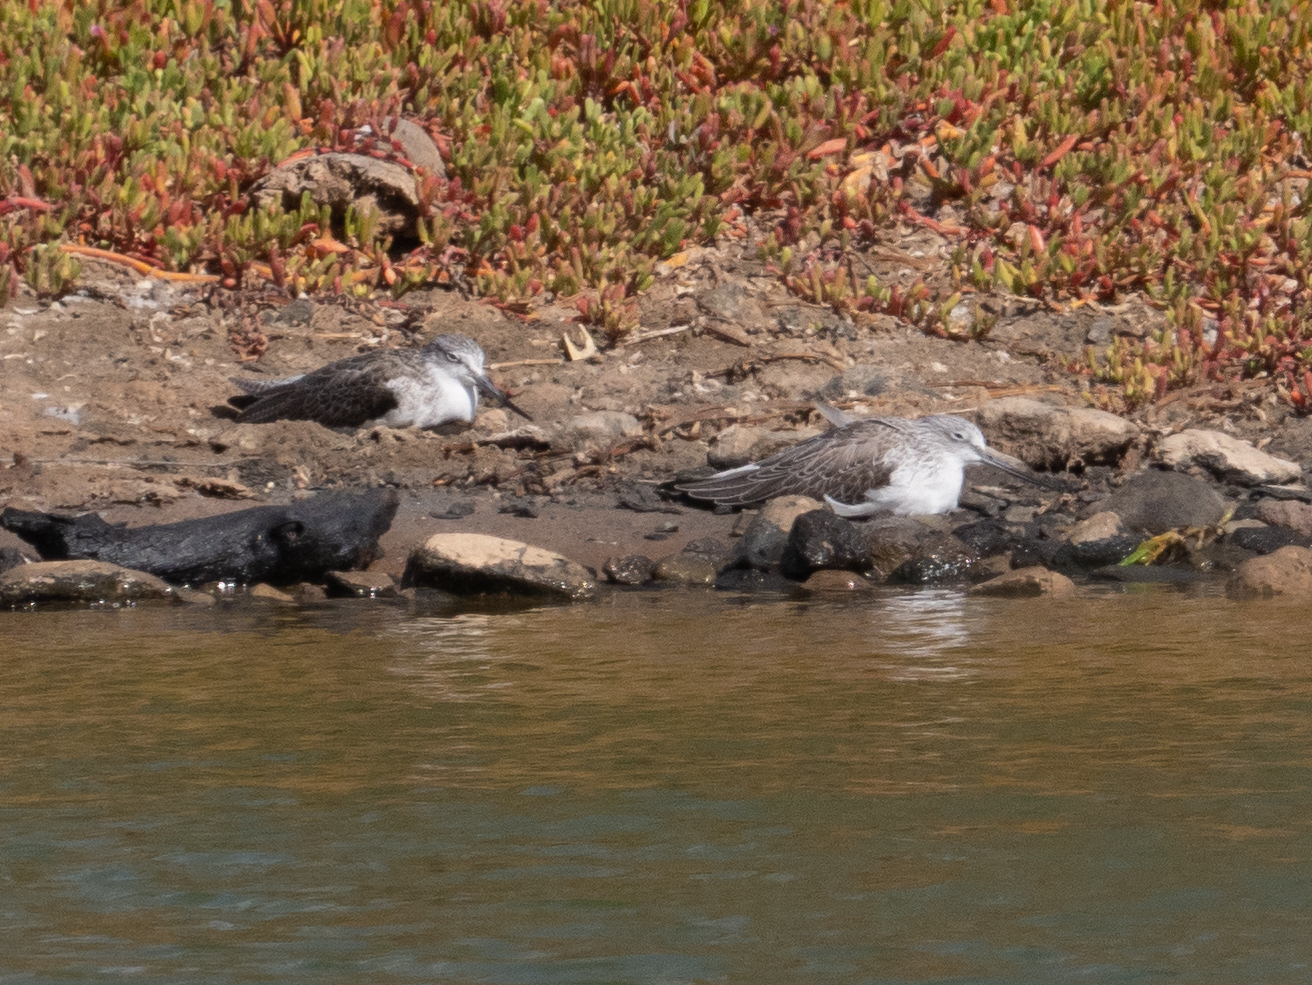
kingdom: Animalia
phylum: Chordata
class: Aves
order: Charadriiformes
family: Scolopacidae
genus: Tringa
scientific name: Tringa nebularia
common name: Common greenshank
